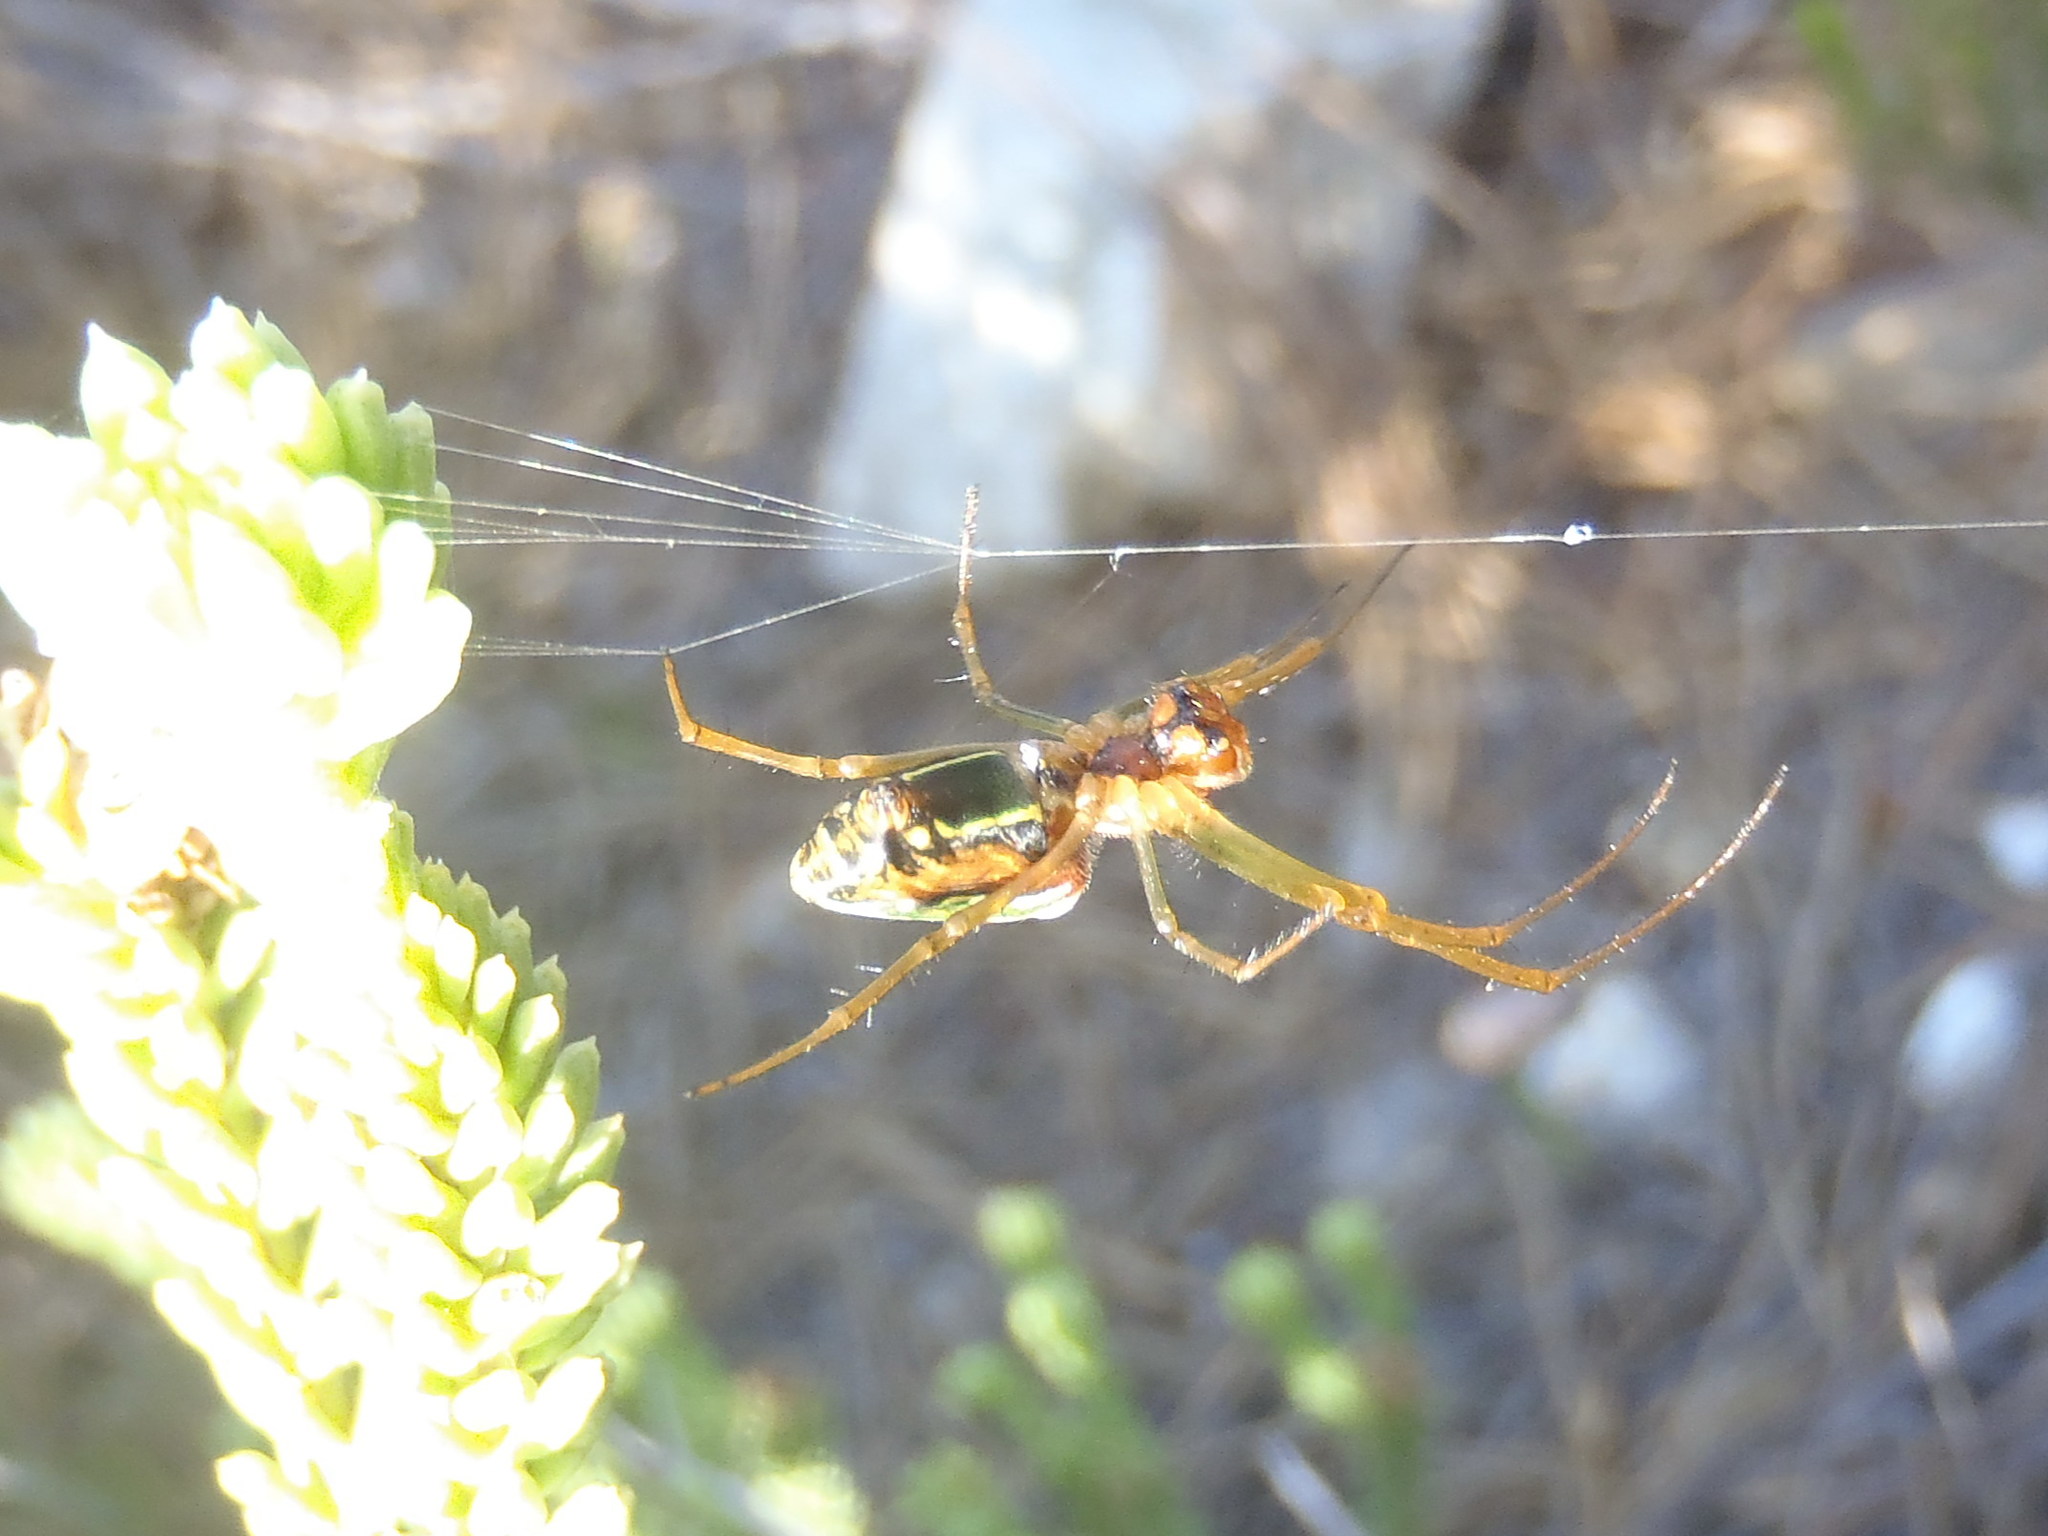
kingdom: Animalia
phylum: Arthropoda
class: Arachnida
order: Araneae
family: Tetragnathidae
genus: Leucauge
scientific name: Leucauge festiva
